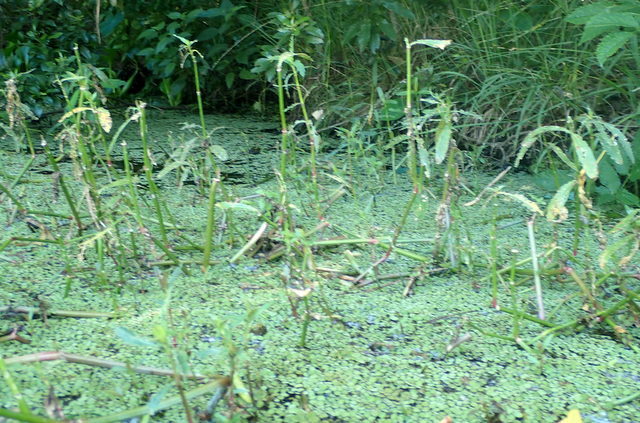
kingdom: Plantae
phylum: Tracheophyta
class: Polypodiopsida
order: Salviniales
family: Salviniaceae
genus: Salvinia
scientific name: Salvinia minima
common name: Water spangles
